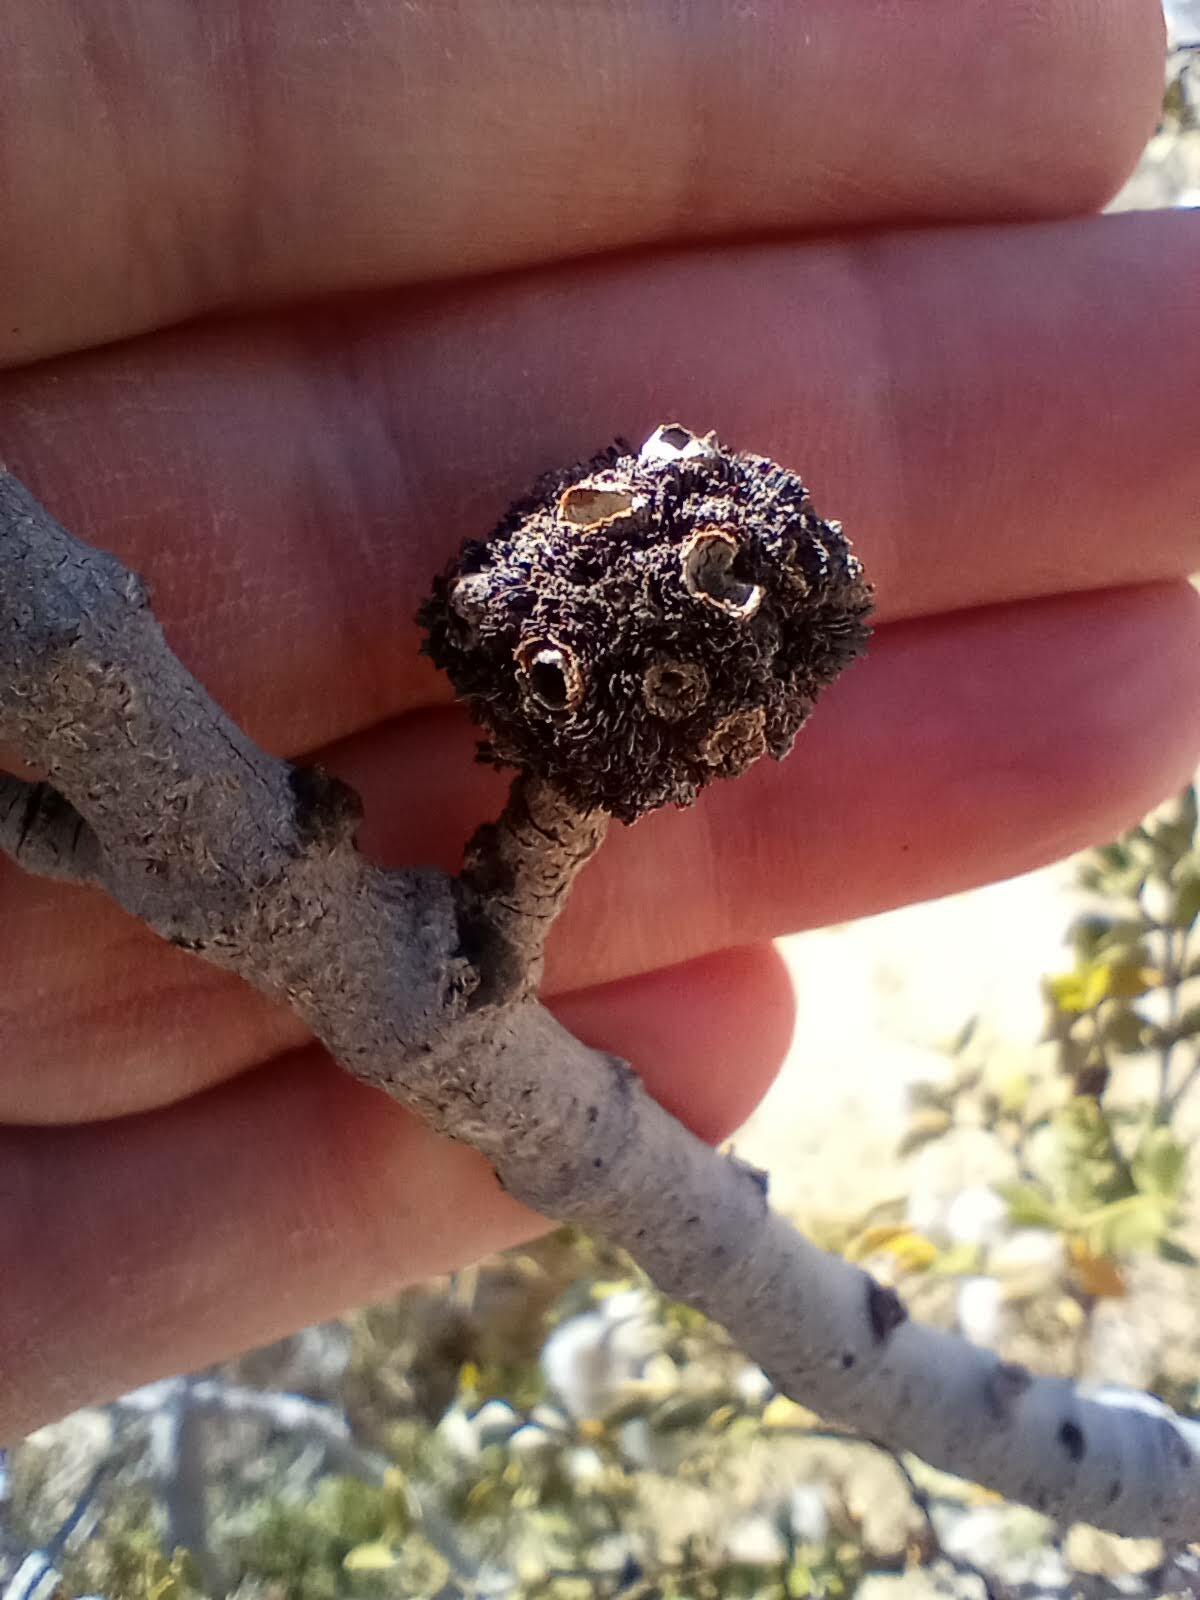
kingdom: Animalia
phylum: Arthropoda
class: Insecta
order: Diptera
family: Cecidomyiidae
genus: Asphondylia
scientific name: Asphondylia auripila
